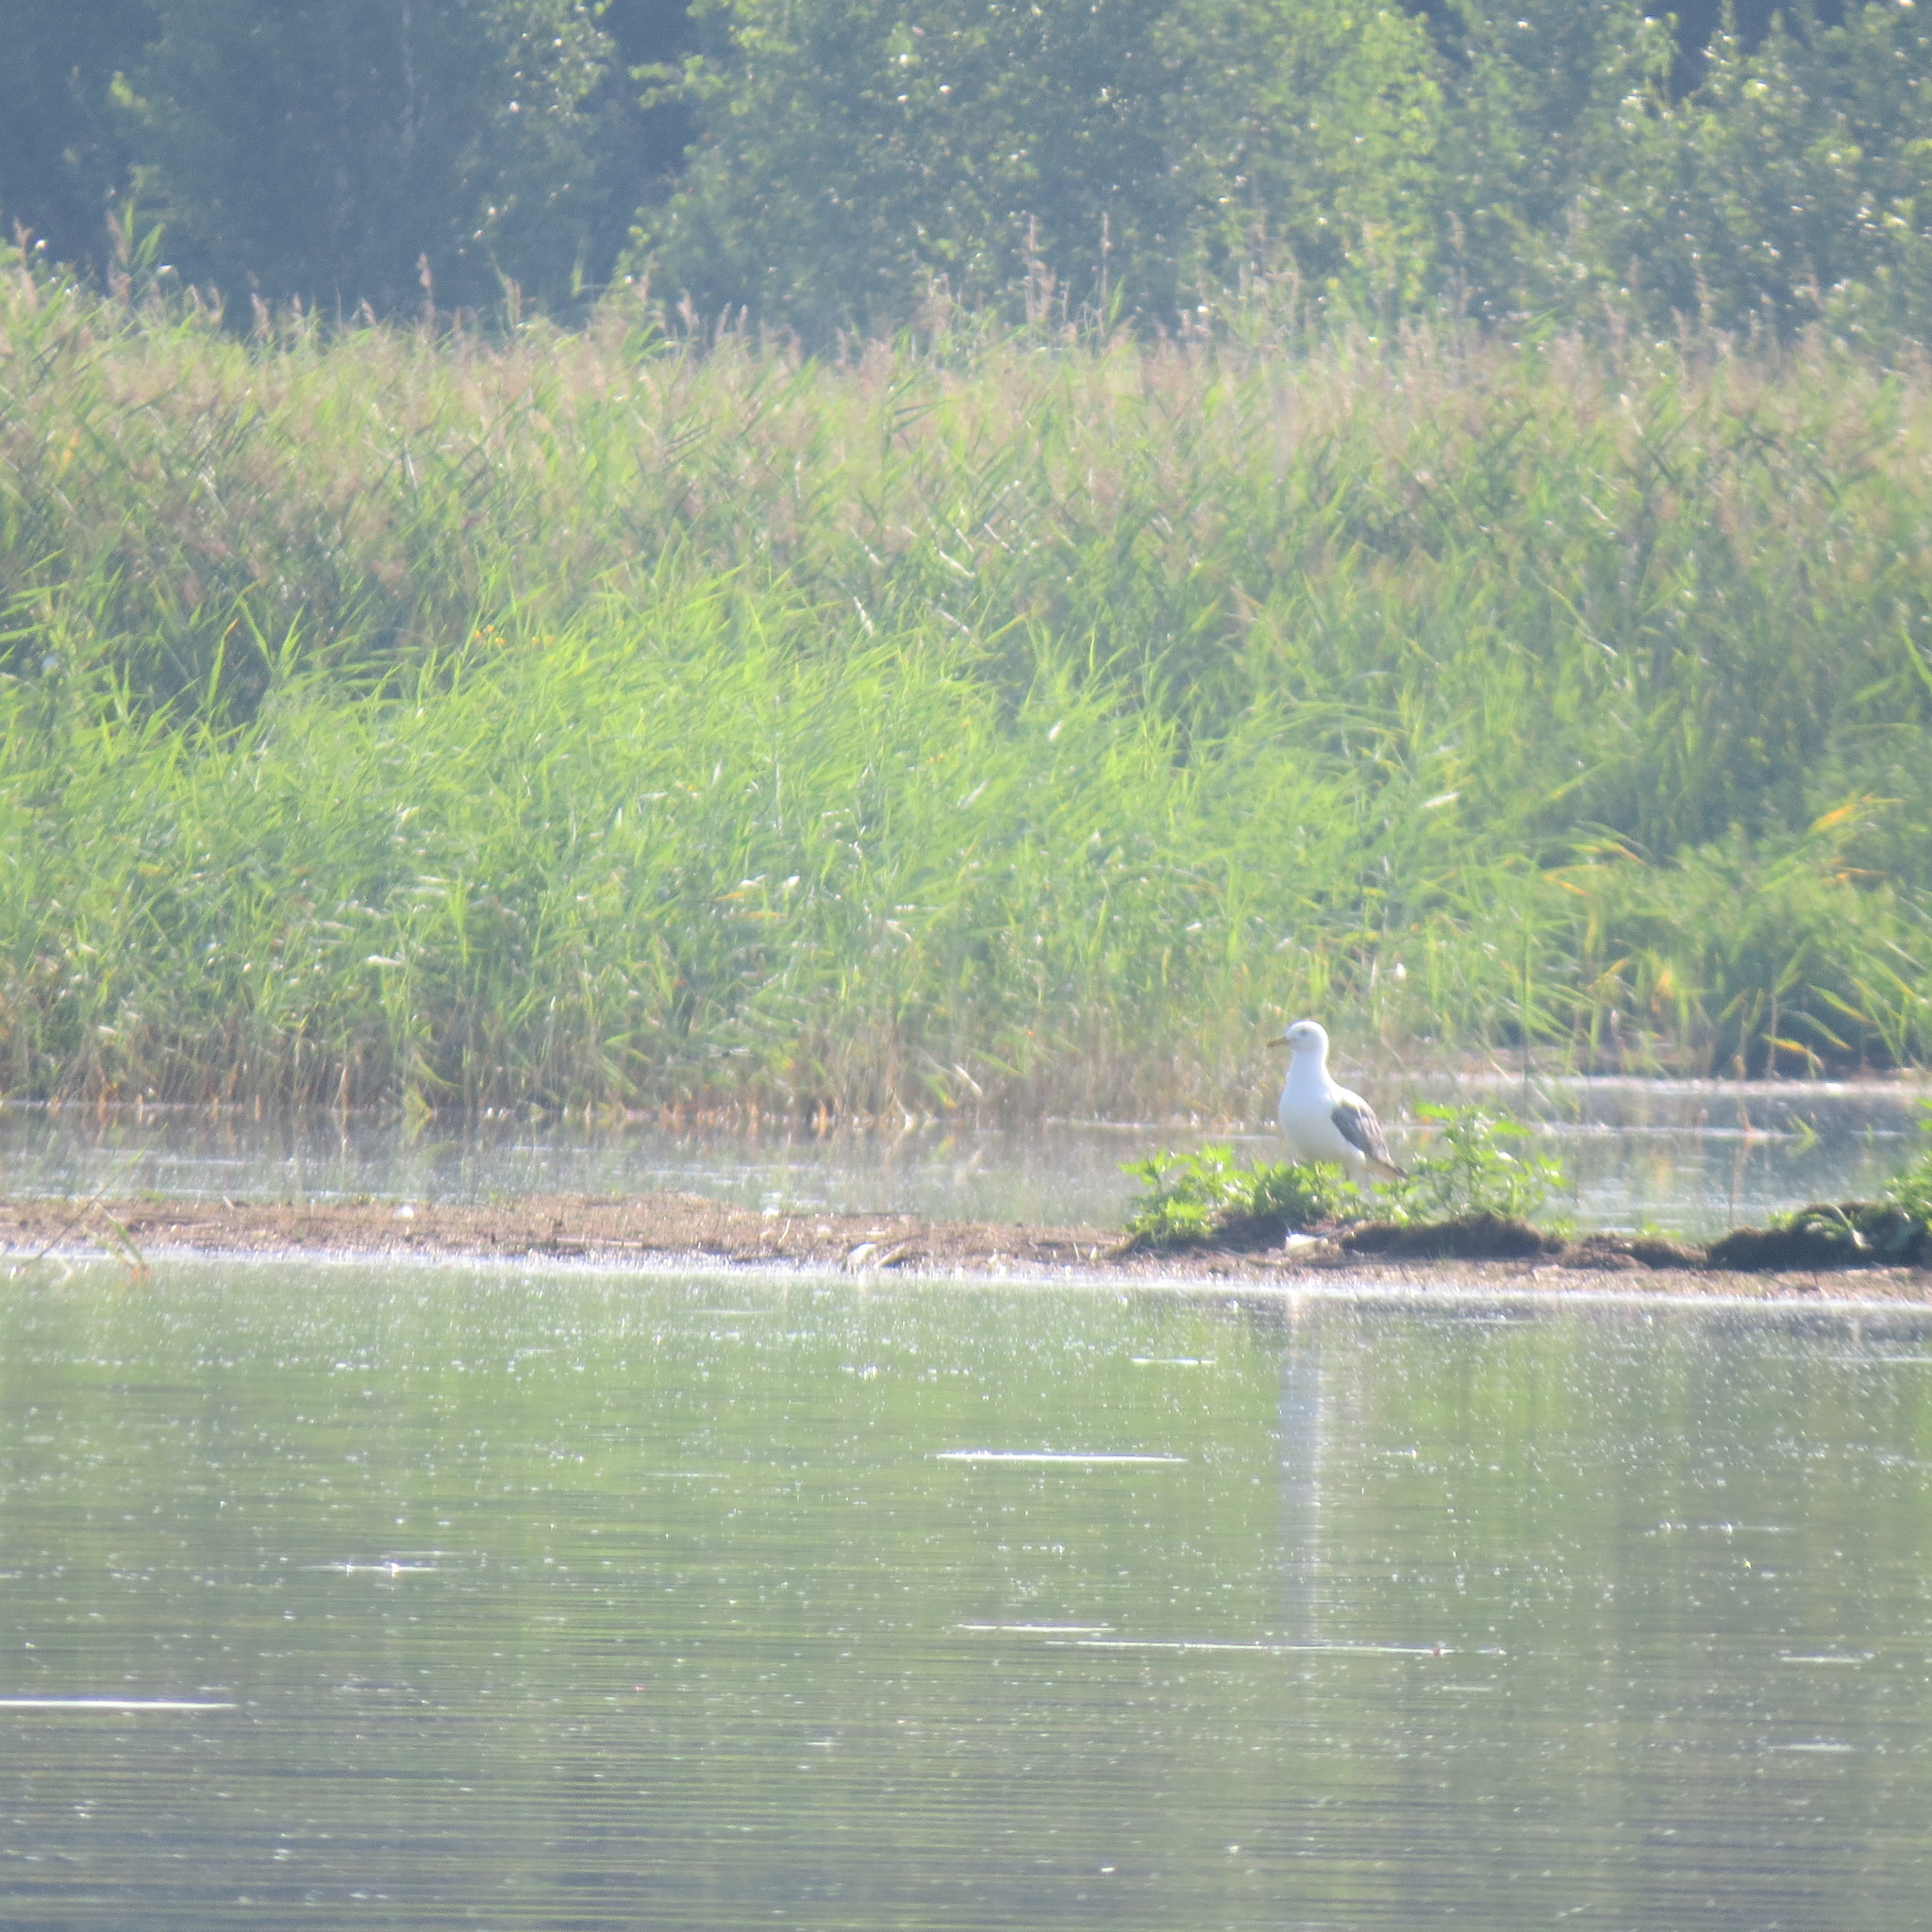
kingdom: Animalia
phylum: Chordata
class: Aves
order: Charadriiformes
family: Laridae
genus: Larus
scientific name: Larus cachinnans
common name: Caspian gull
